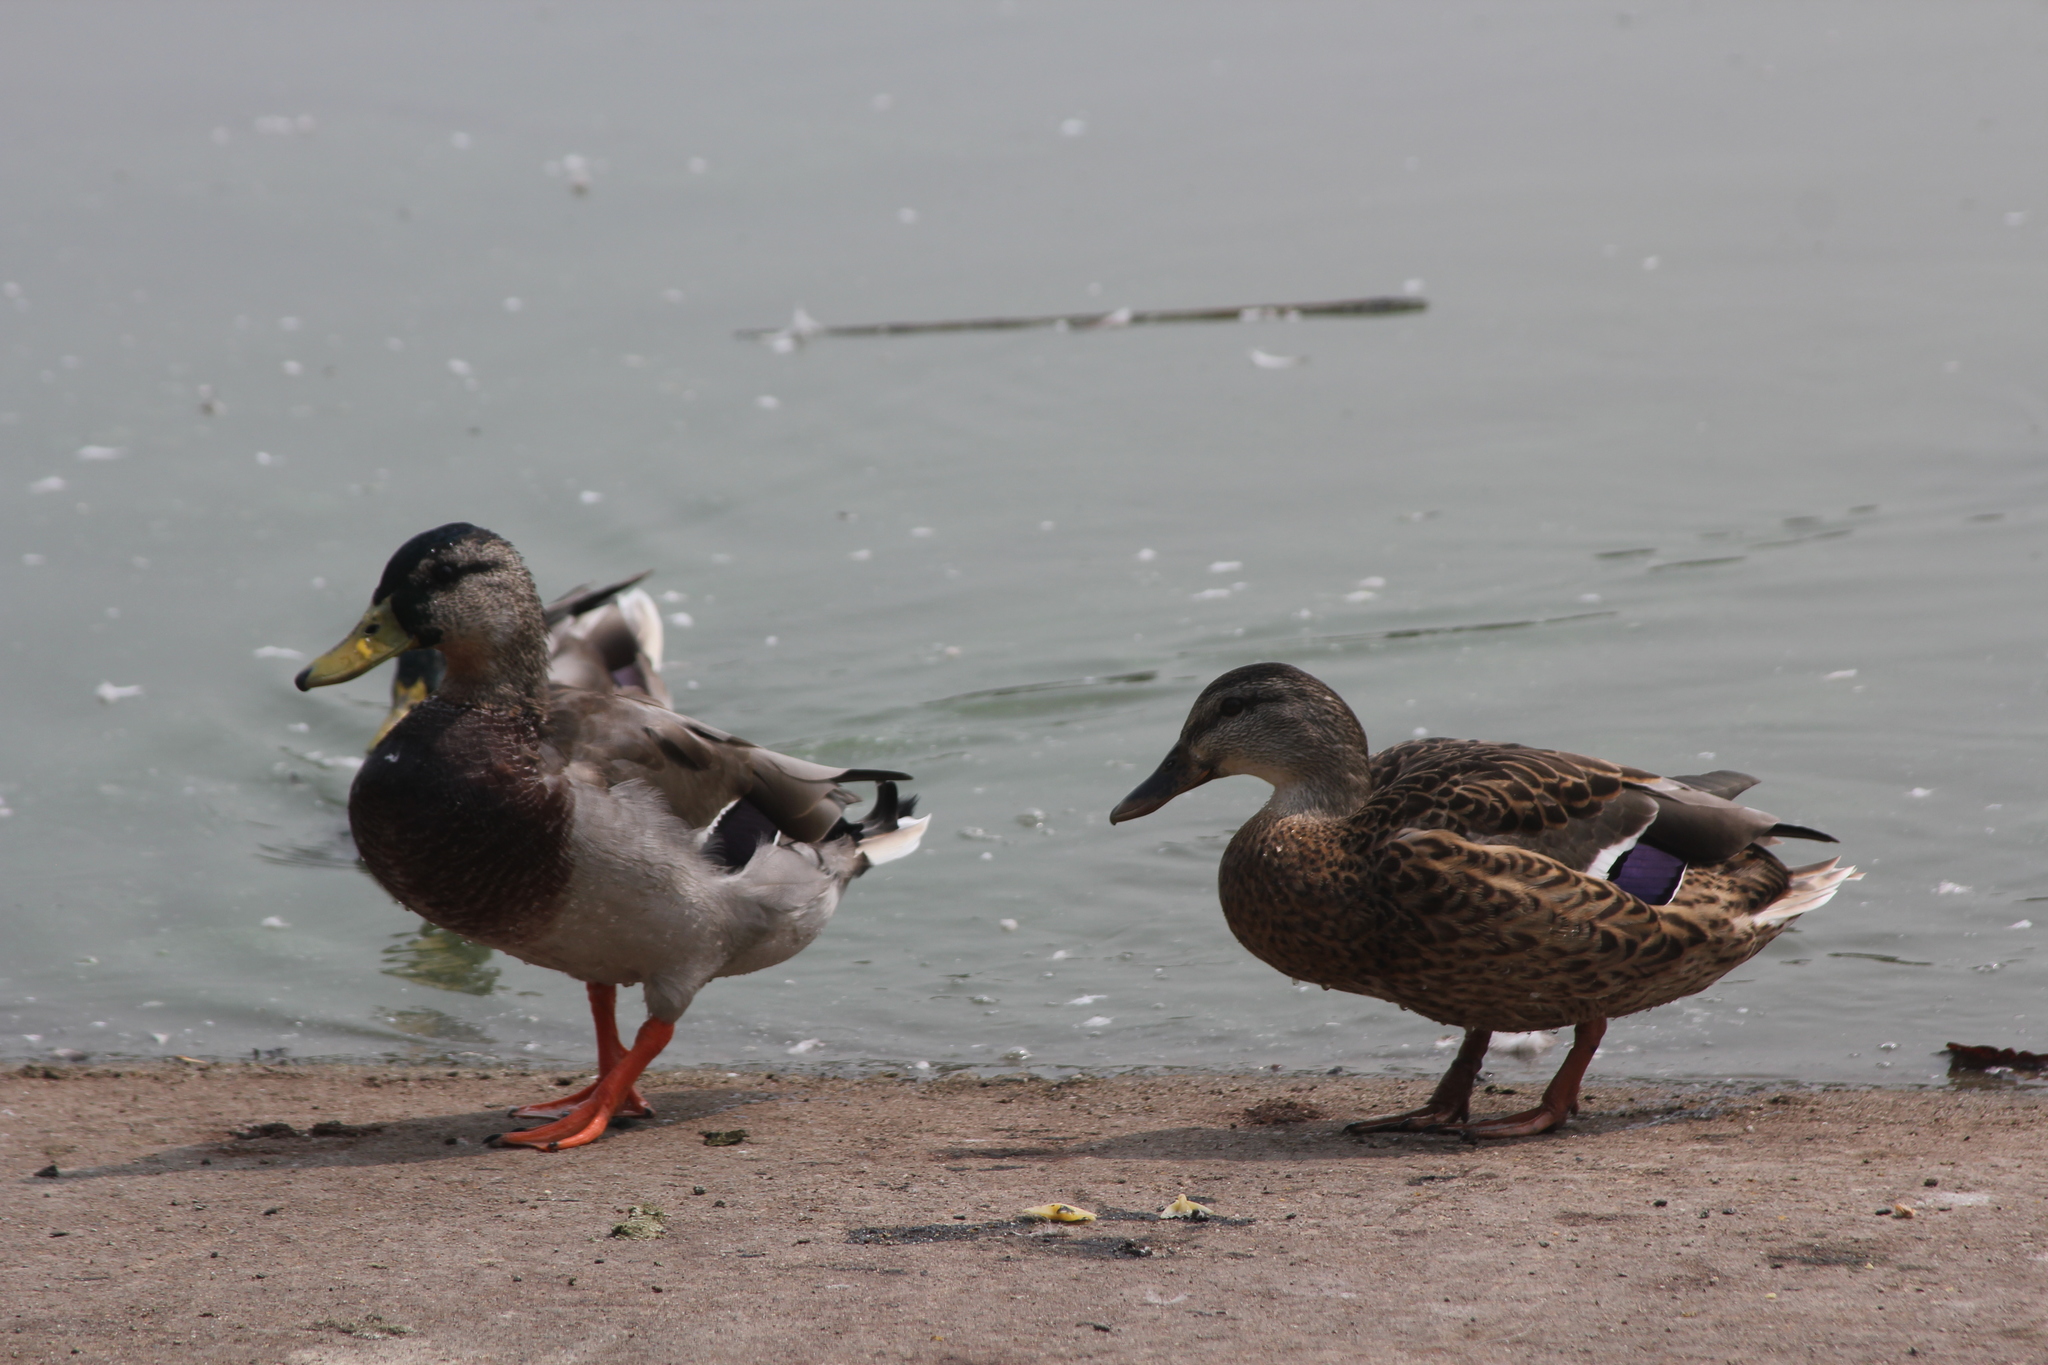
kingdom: Animalia
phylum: Chordata
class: Aves
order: Anseriformes
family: Anatidae
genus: Anas
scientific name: Anas platyrhynchos
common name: Mallard
